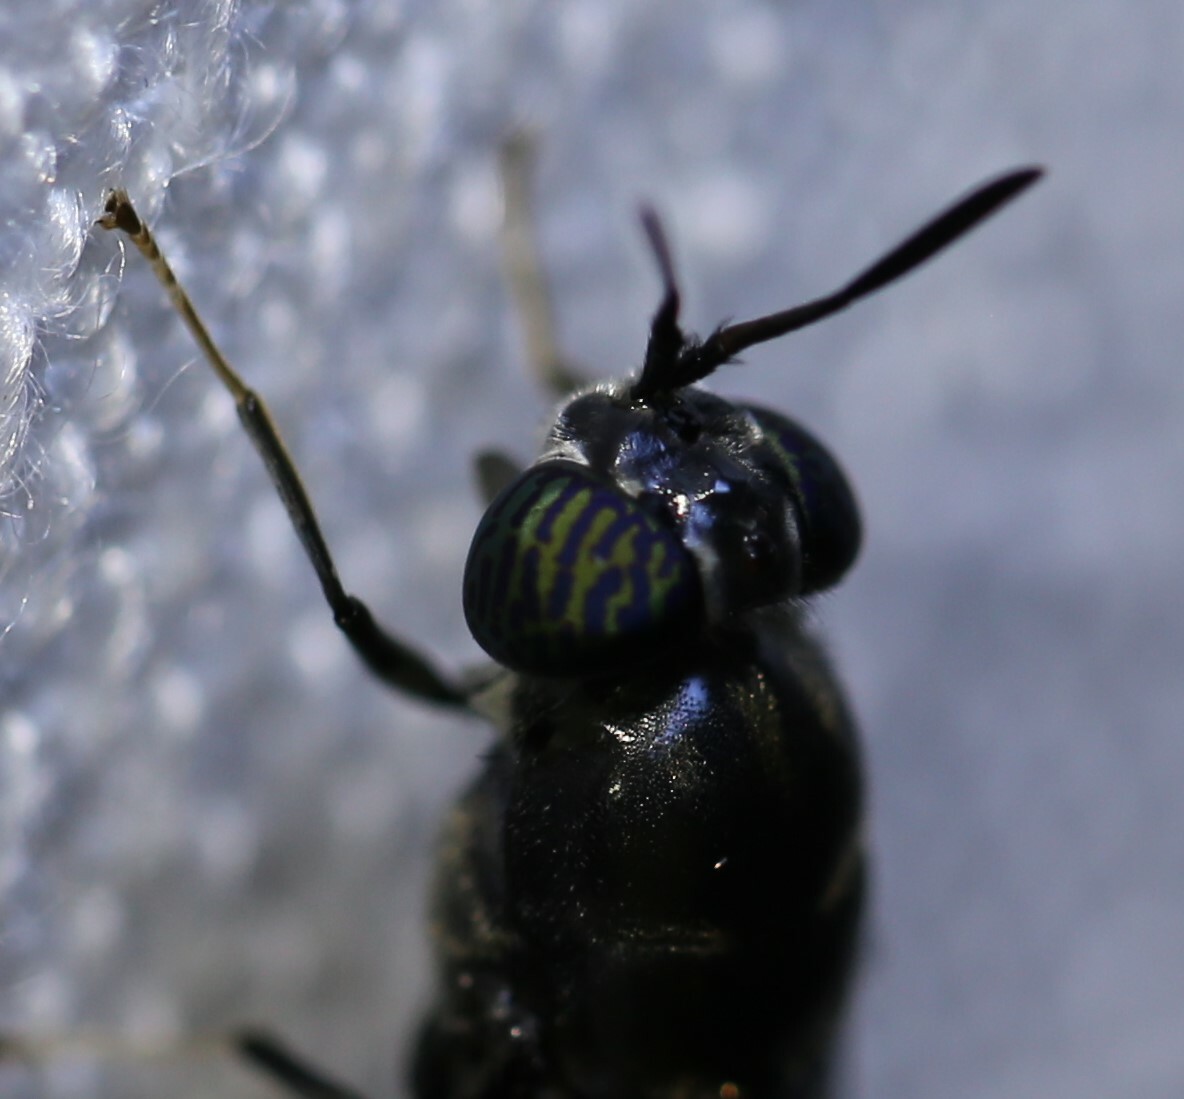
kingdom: Animalia
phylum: Arthropoda
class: Insecta
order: Diptera
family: Stratiomyidae
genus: Hermetia
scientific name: Hermetia illucens
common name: Black soldier fly
